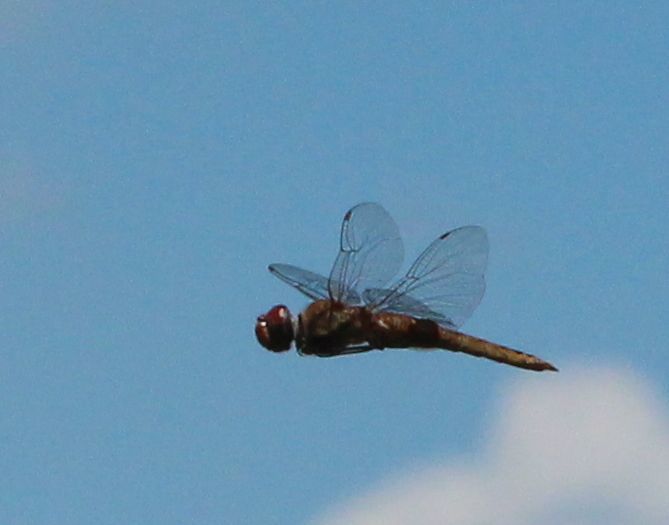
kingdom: Animalia
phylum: Arthropoda
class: Insecta
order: Odonata
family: Libellulidae
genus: Pantala
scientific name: Pantala hymenaea
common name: Spot-winged glider
